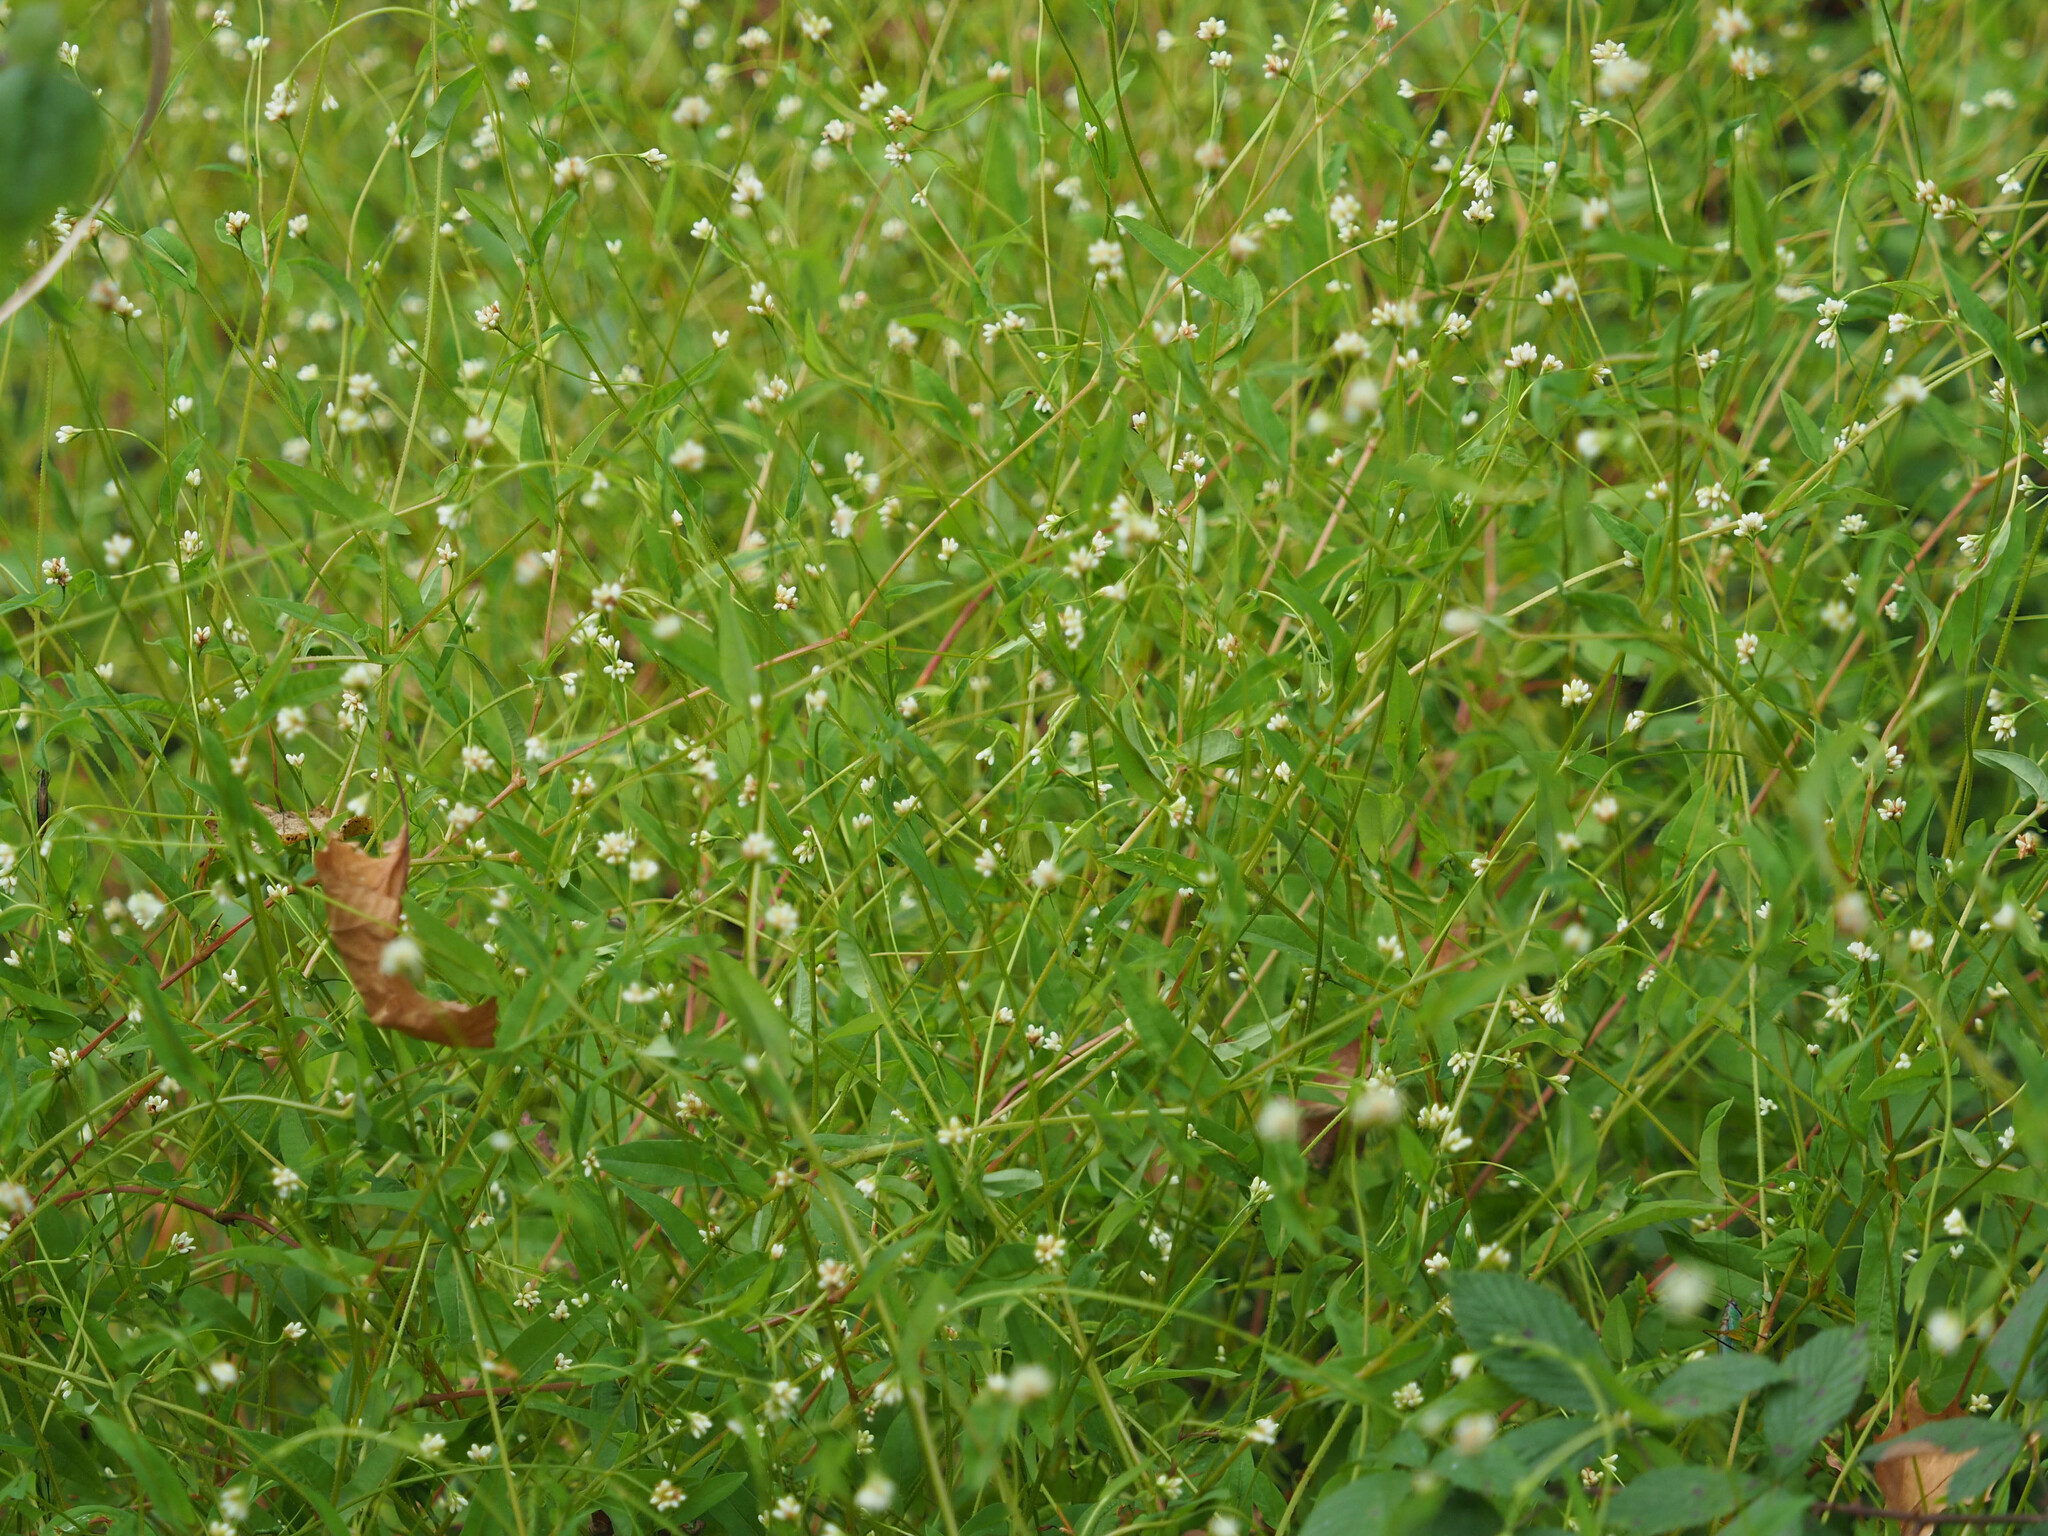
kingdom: Plantae
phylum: Tracheophyta
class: Magnoliopsida
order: Caryophyllales
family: Polygonaceae
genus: Persicaria
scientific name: Persicaria sagittata
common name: American tearthumb
